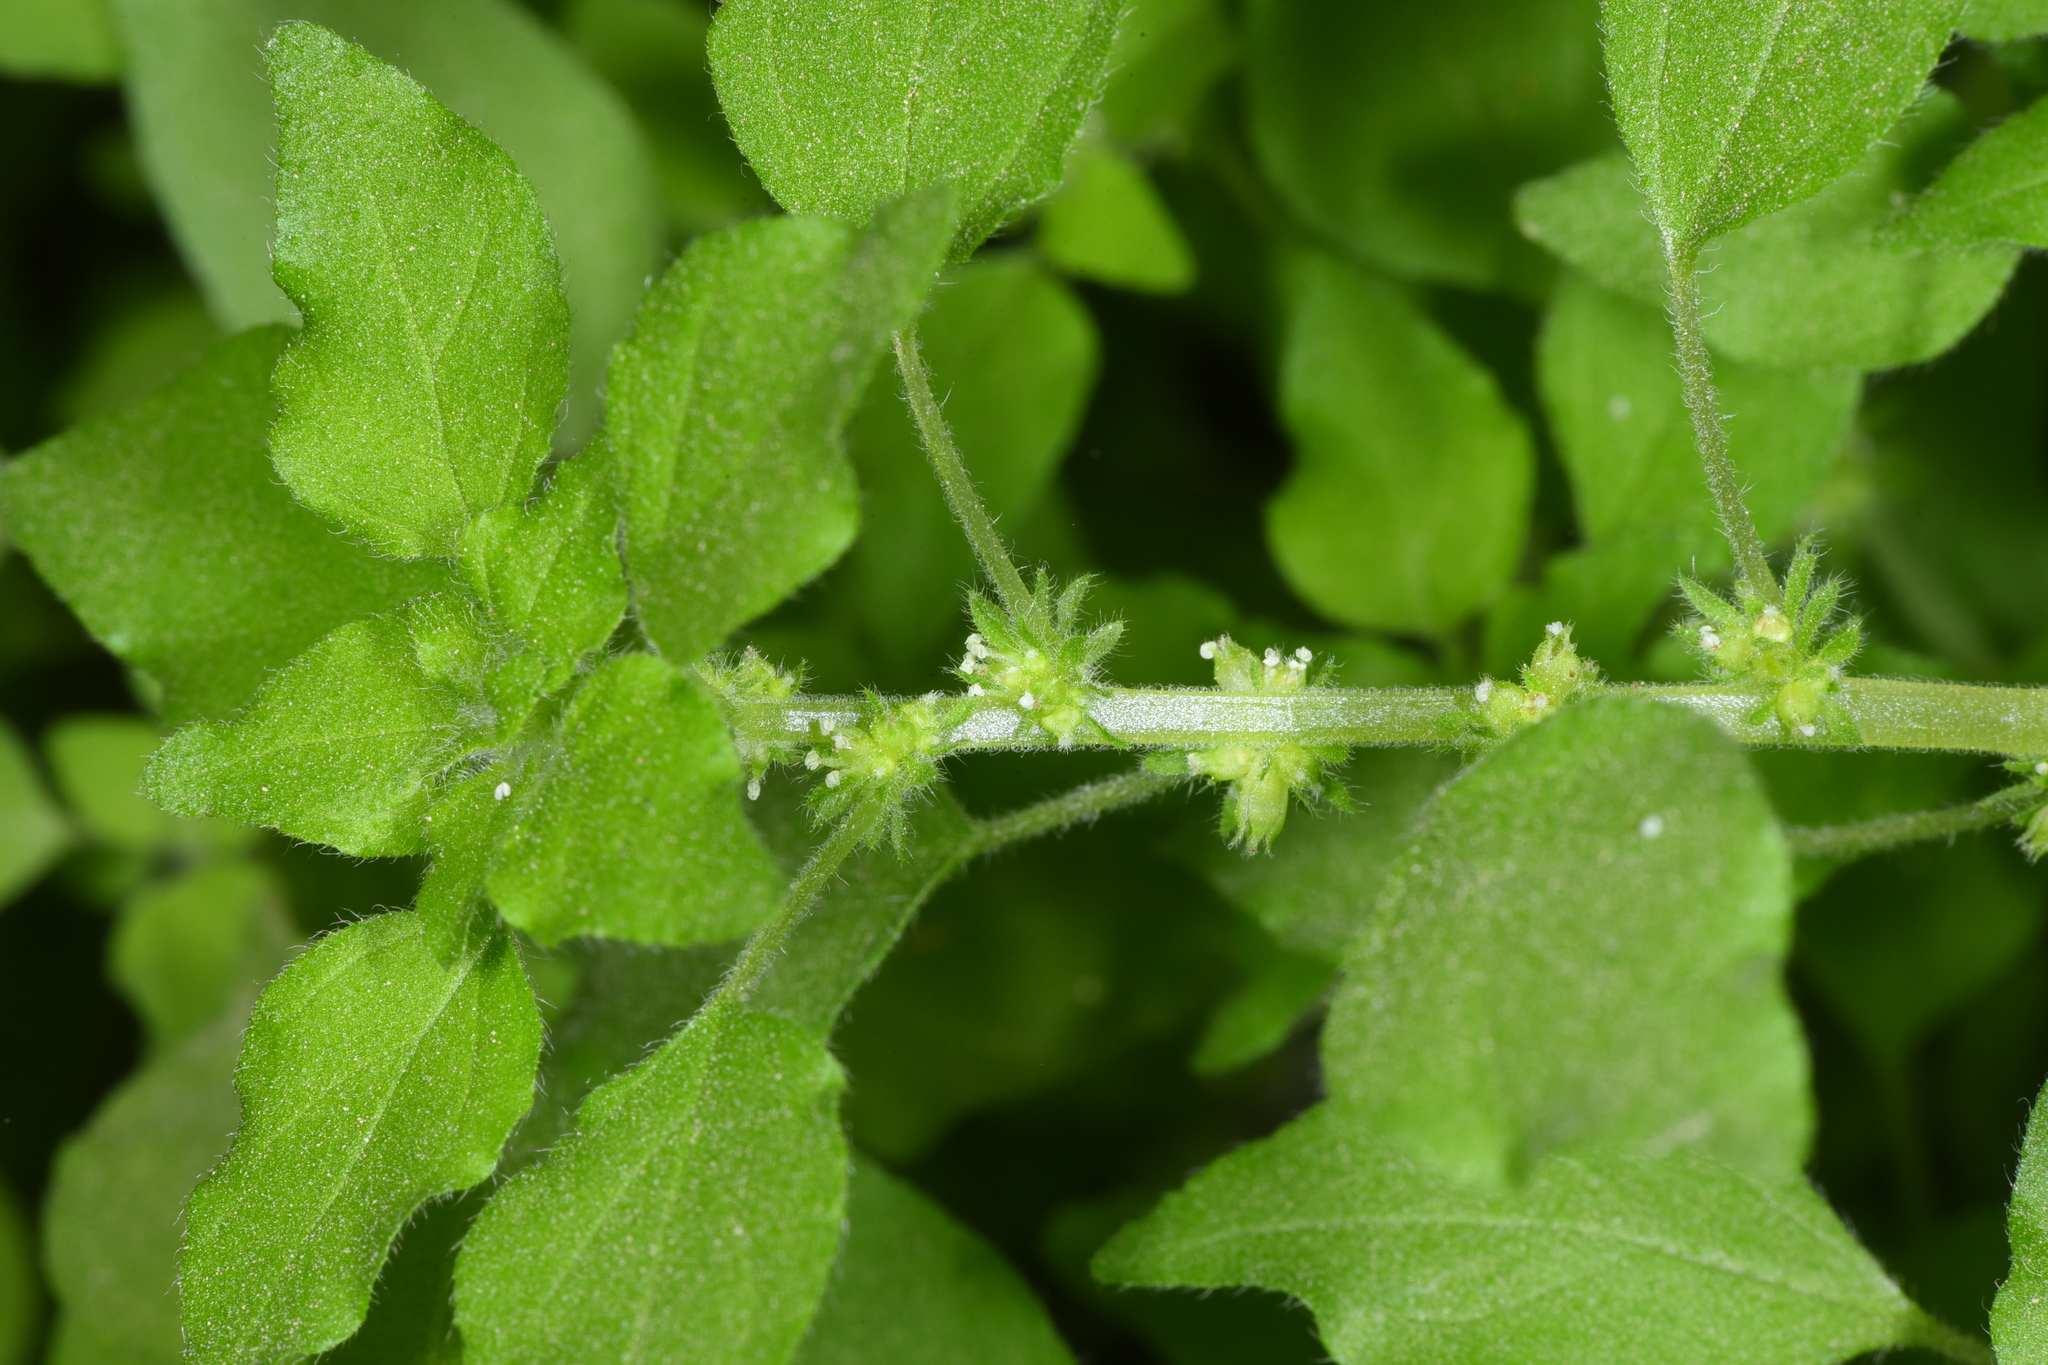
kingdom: Plantae
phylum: Tracheophyta
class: Magnoliopsida
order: Rosales
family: Urticaceae
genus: Parietaria
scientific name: Parietaria hespera
